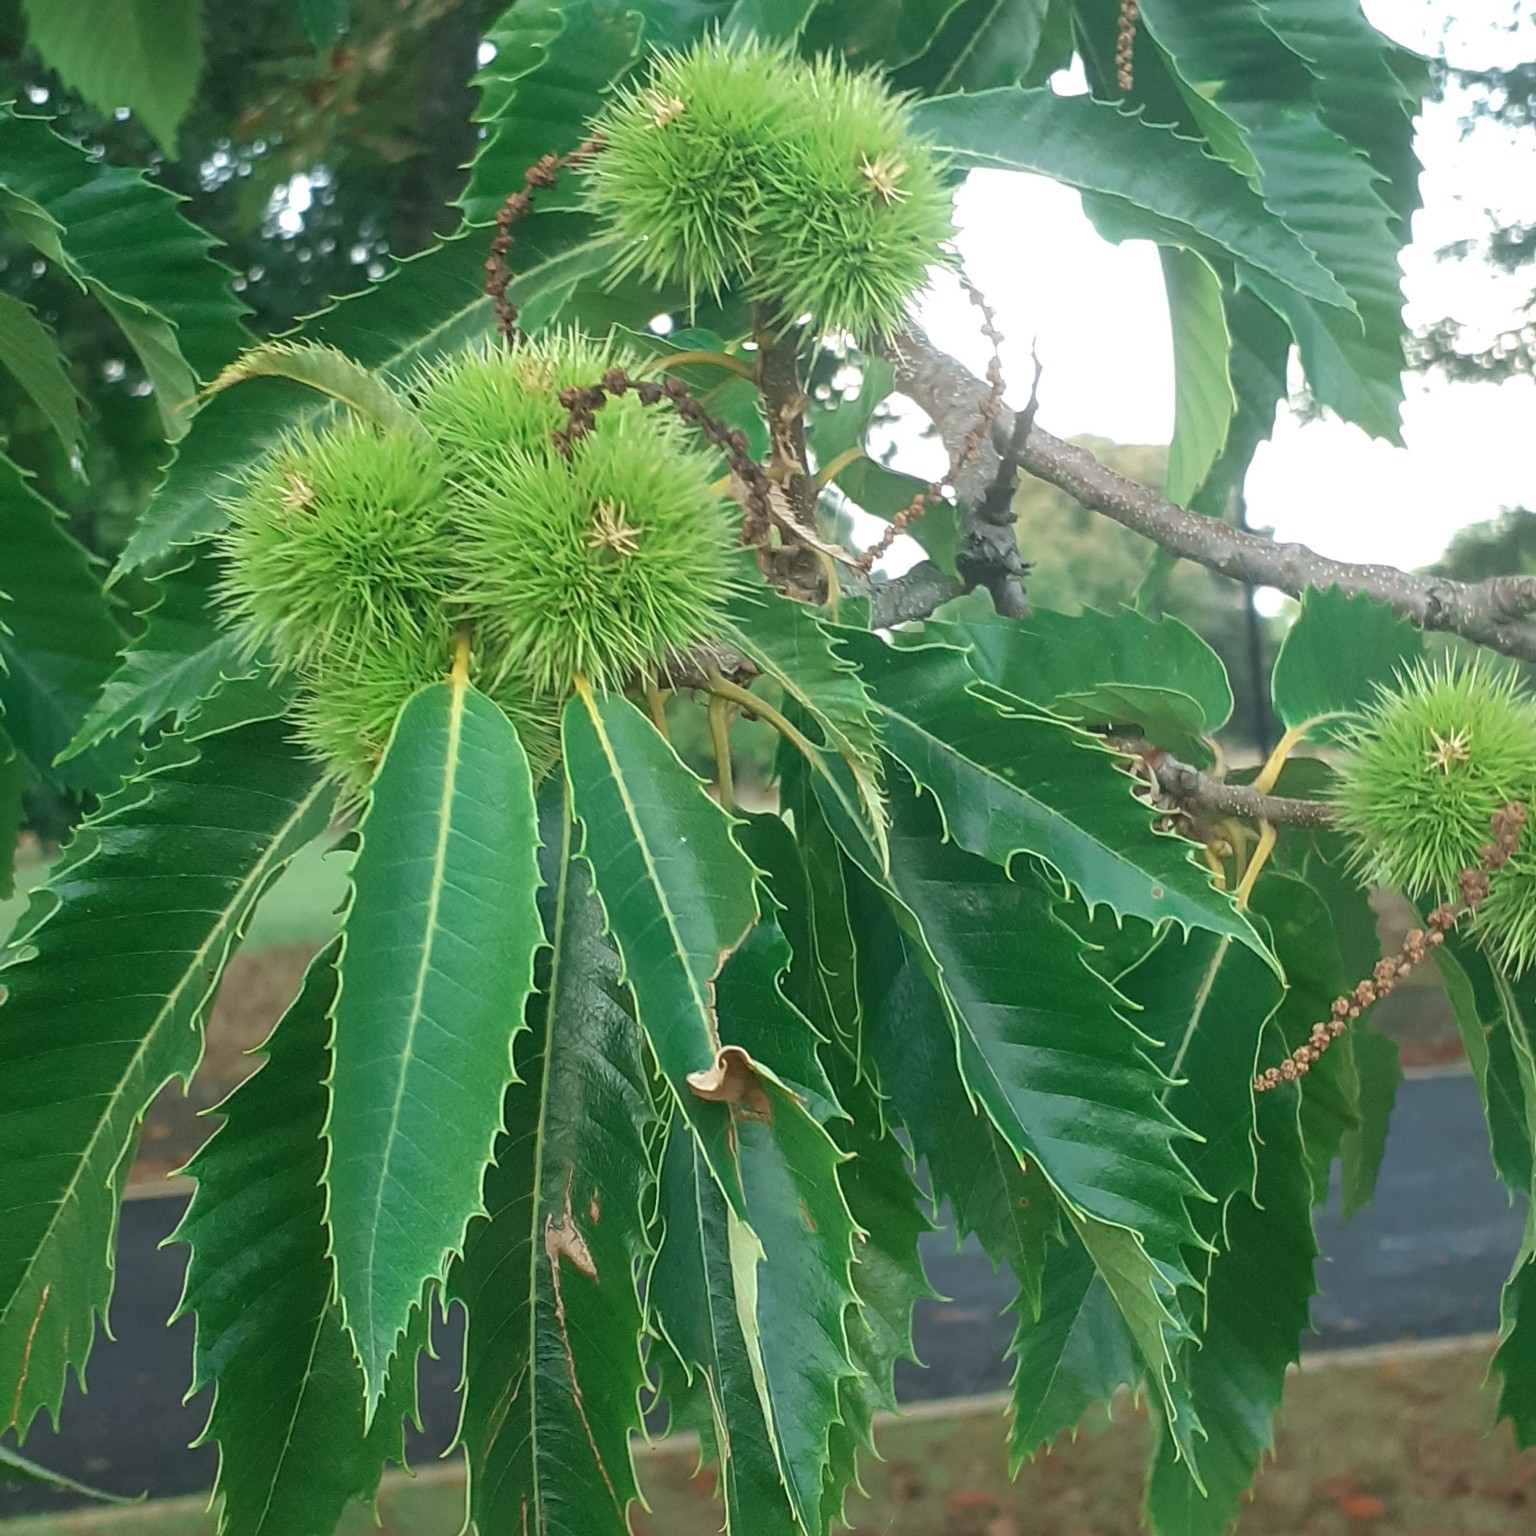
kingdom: Plantae
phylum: Tracheophyta
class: Magnoliopsida
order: Fagales
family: Fagaceae
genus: Castanea
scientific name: Castanea sativa
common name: Sweet chestnut
